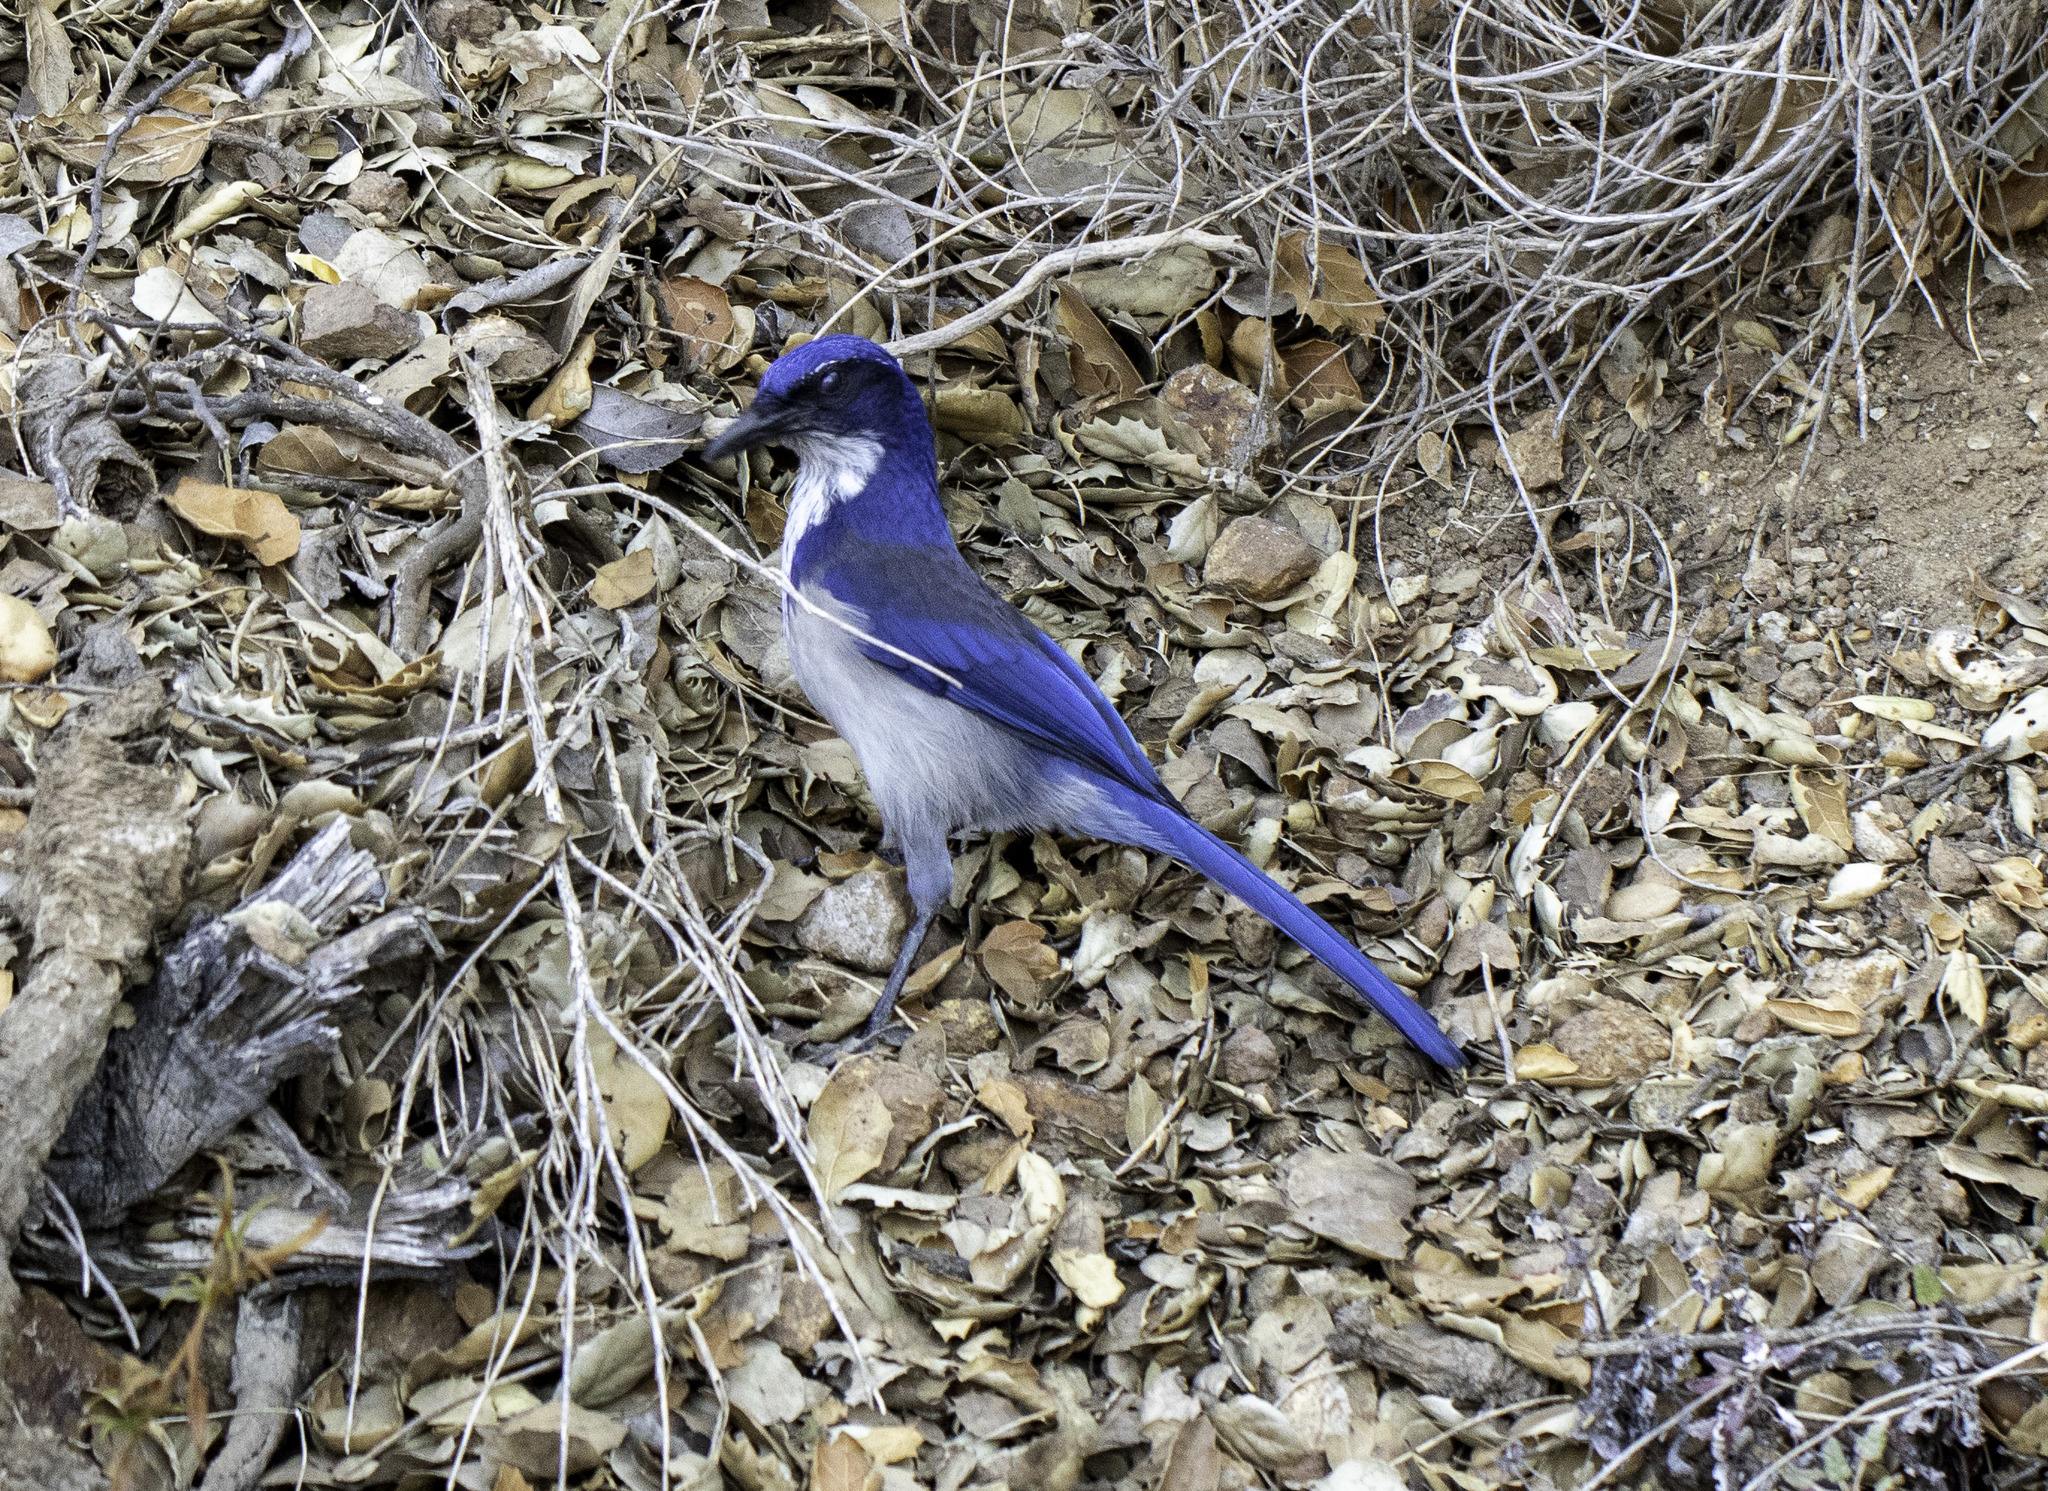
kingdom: Animalia
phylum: Chordata
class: Aves
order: Passeriformes
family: Corvidae
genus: Aphelocoma
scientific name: Aphelocoma insularis
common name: Island scrub-jay
